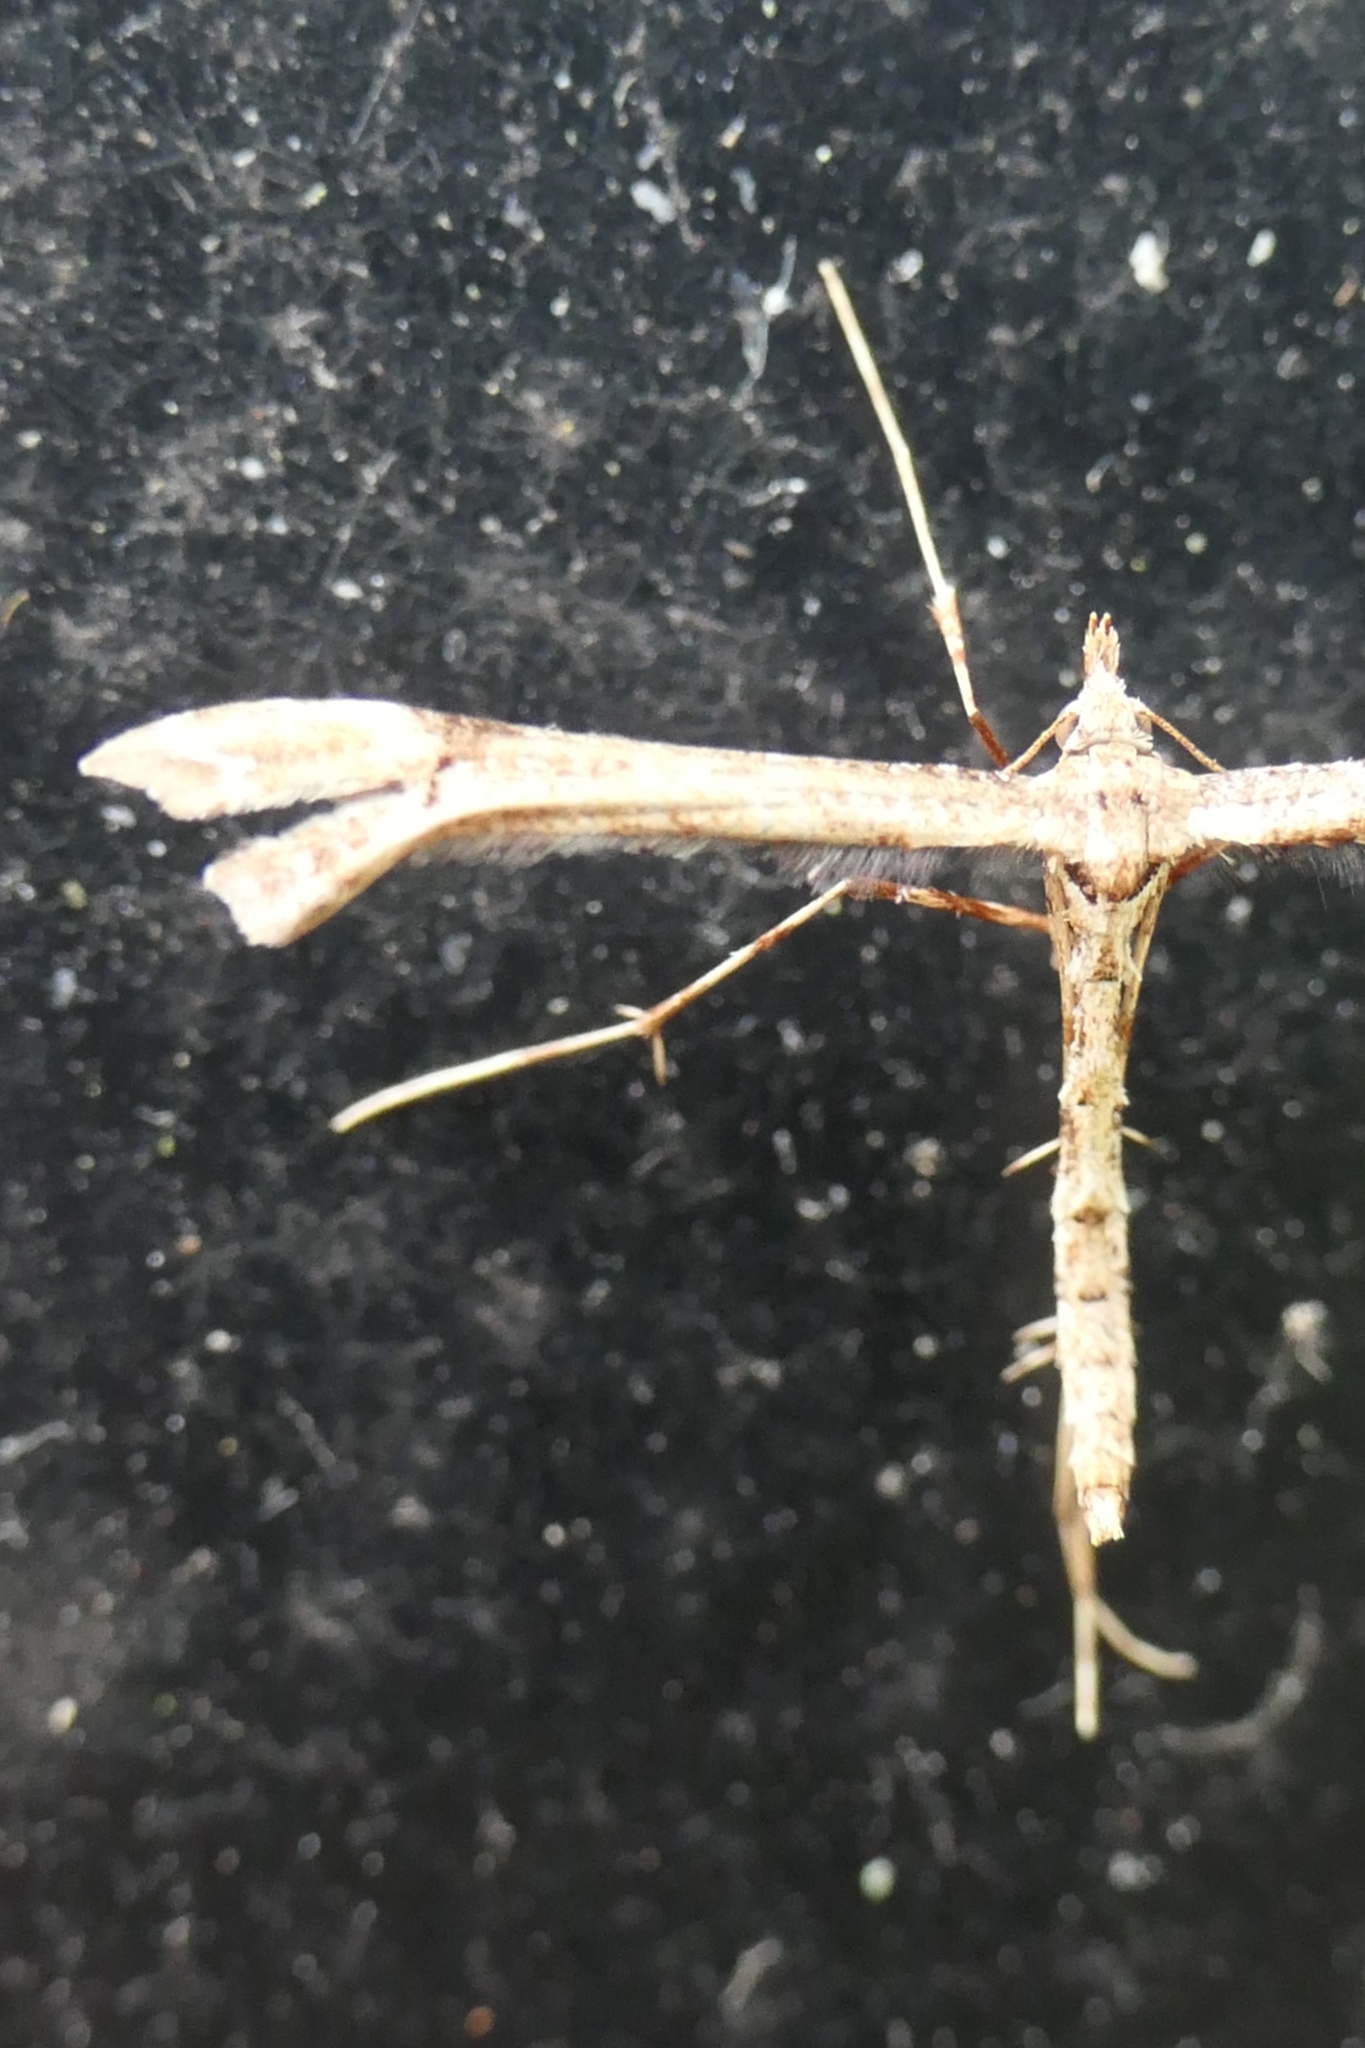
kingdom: Animalia
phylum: Arthropoda
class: Insecta
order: Lepidoptera
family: Pterophoridae
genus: Amblyptilia
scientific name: Amblyptilia repletalis
